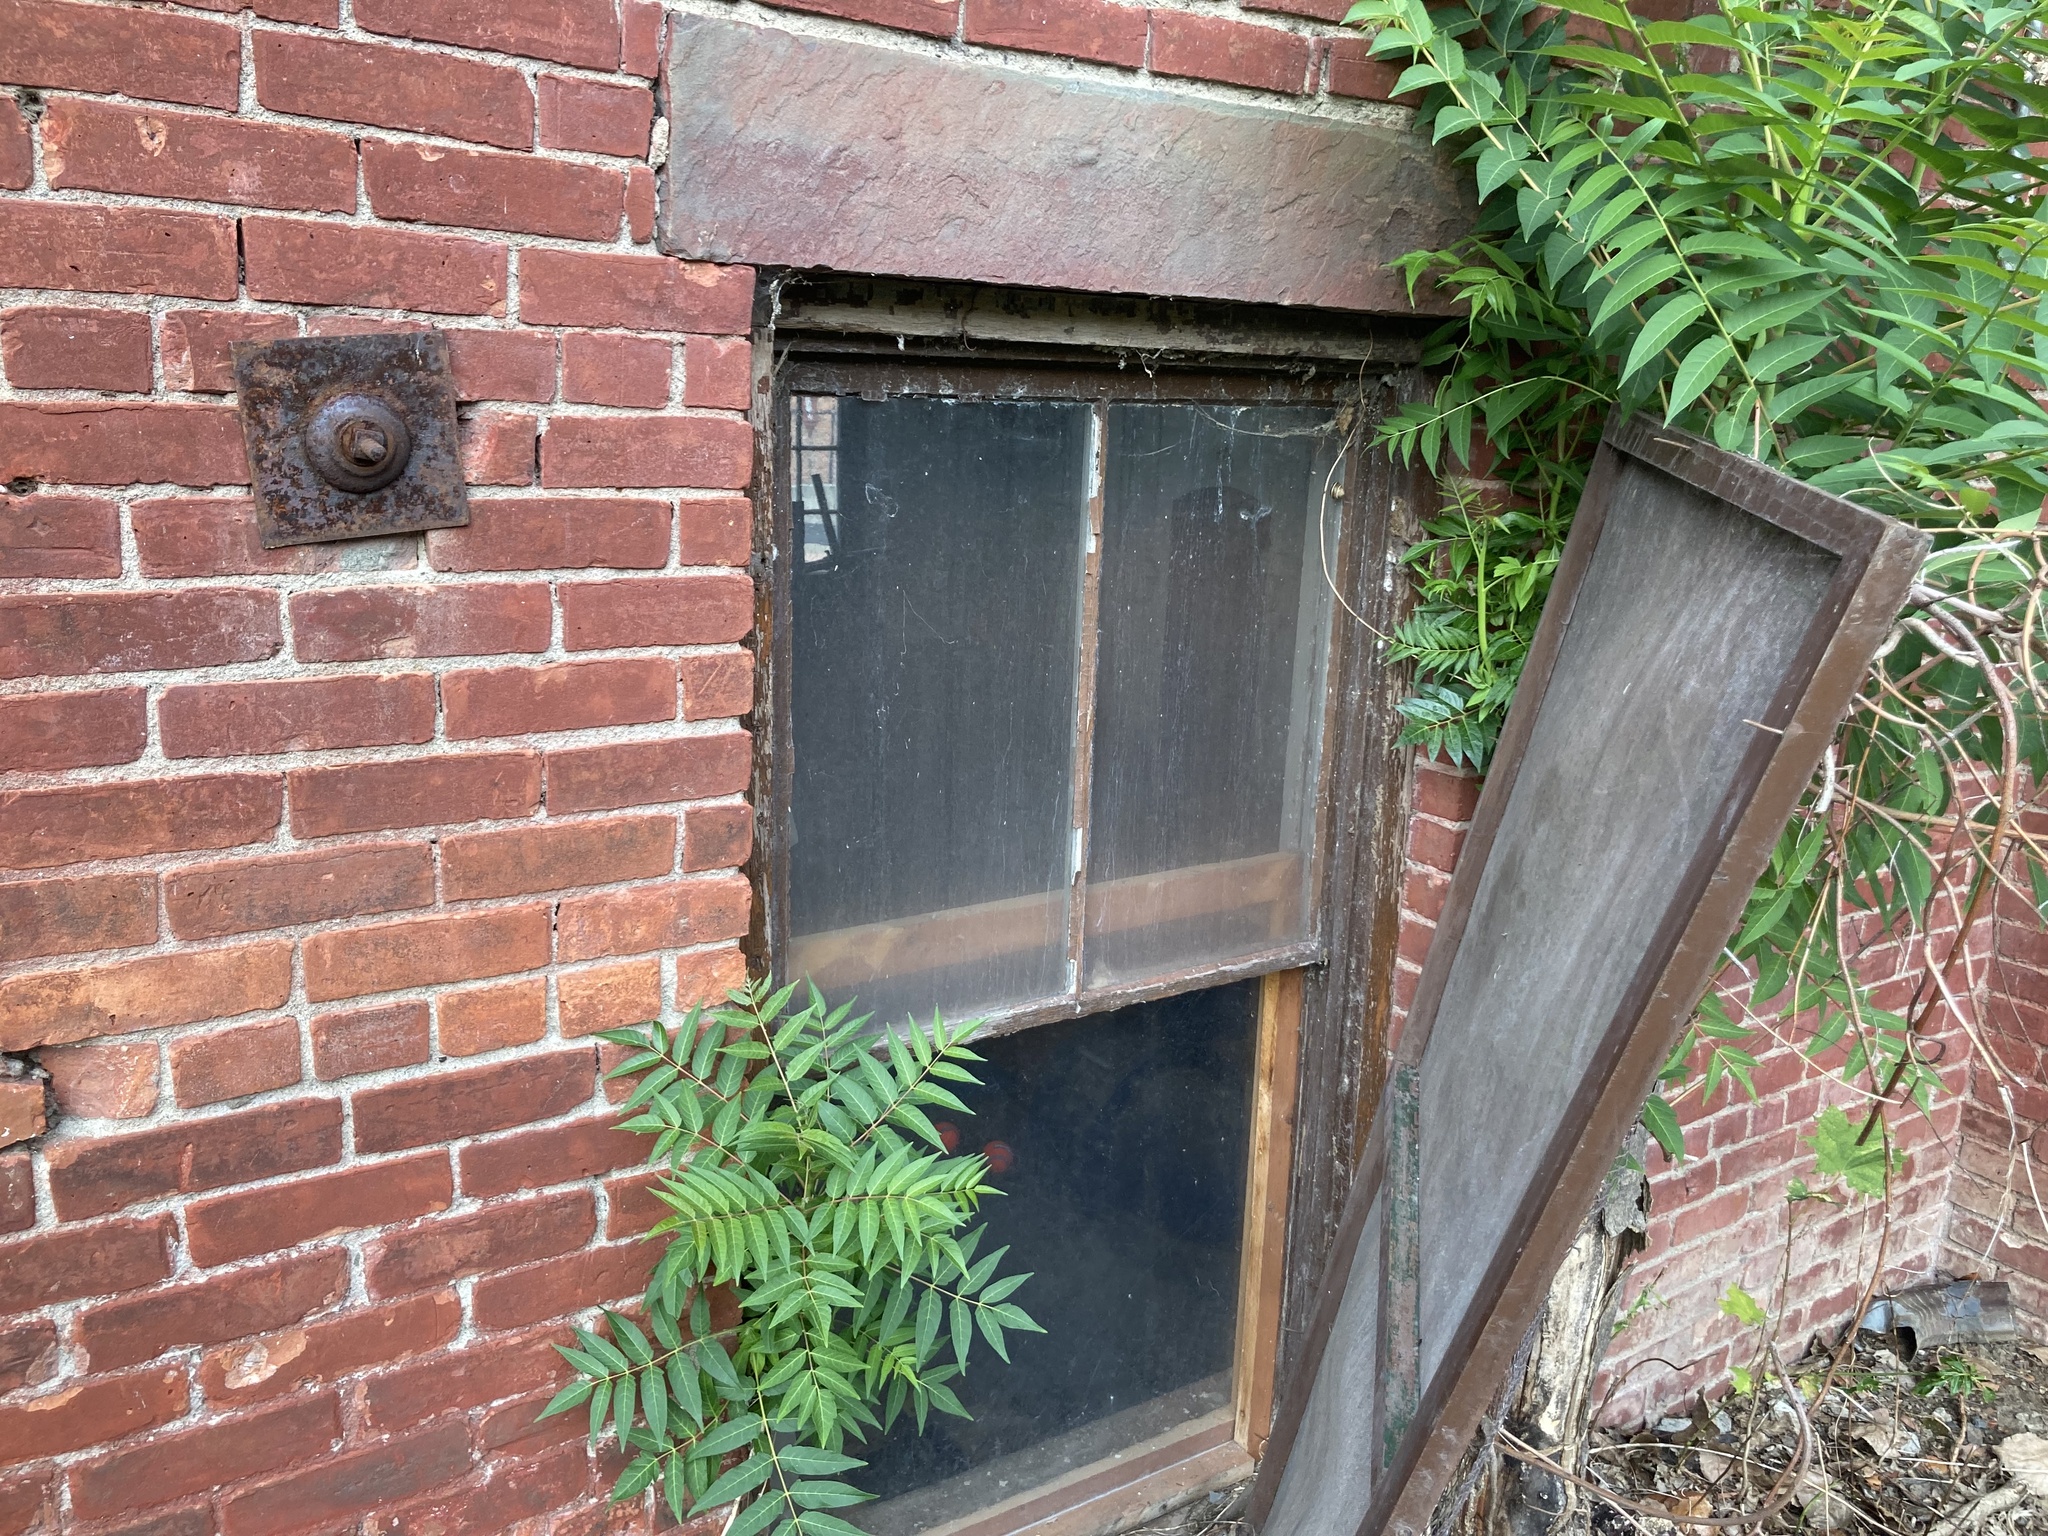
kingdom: Plantae
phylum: Tracheophyta
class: Magnoliopsida
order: Sapindales
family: Simaroubaceae
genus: Ailanthus
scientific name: Ailanthus altissima
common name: Tree-of-heaven
